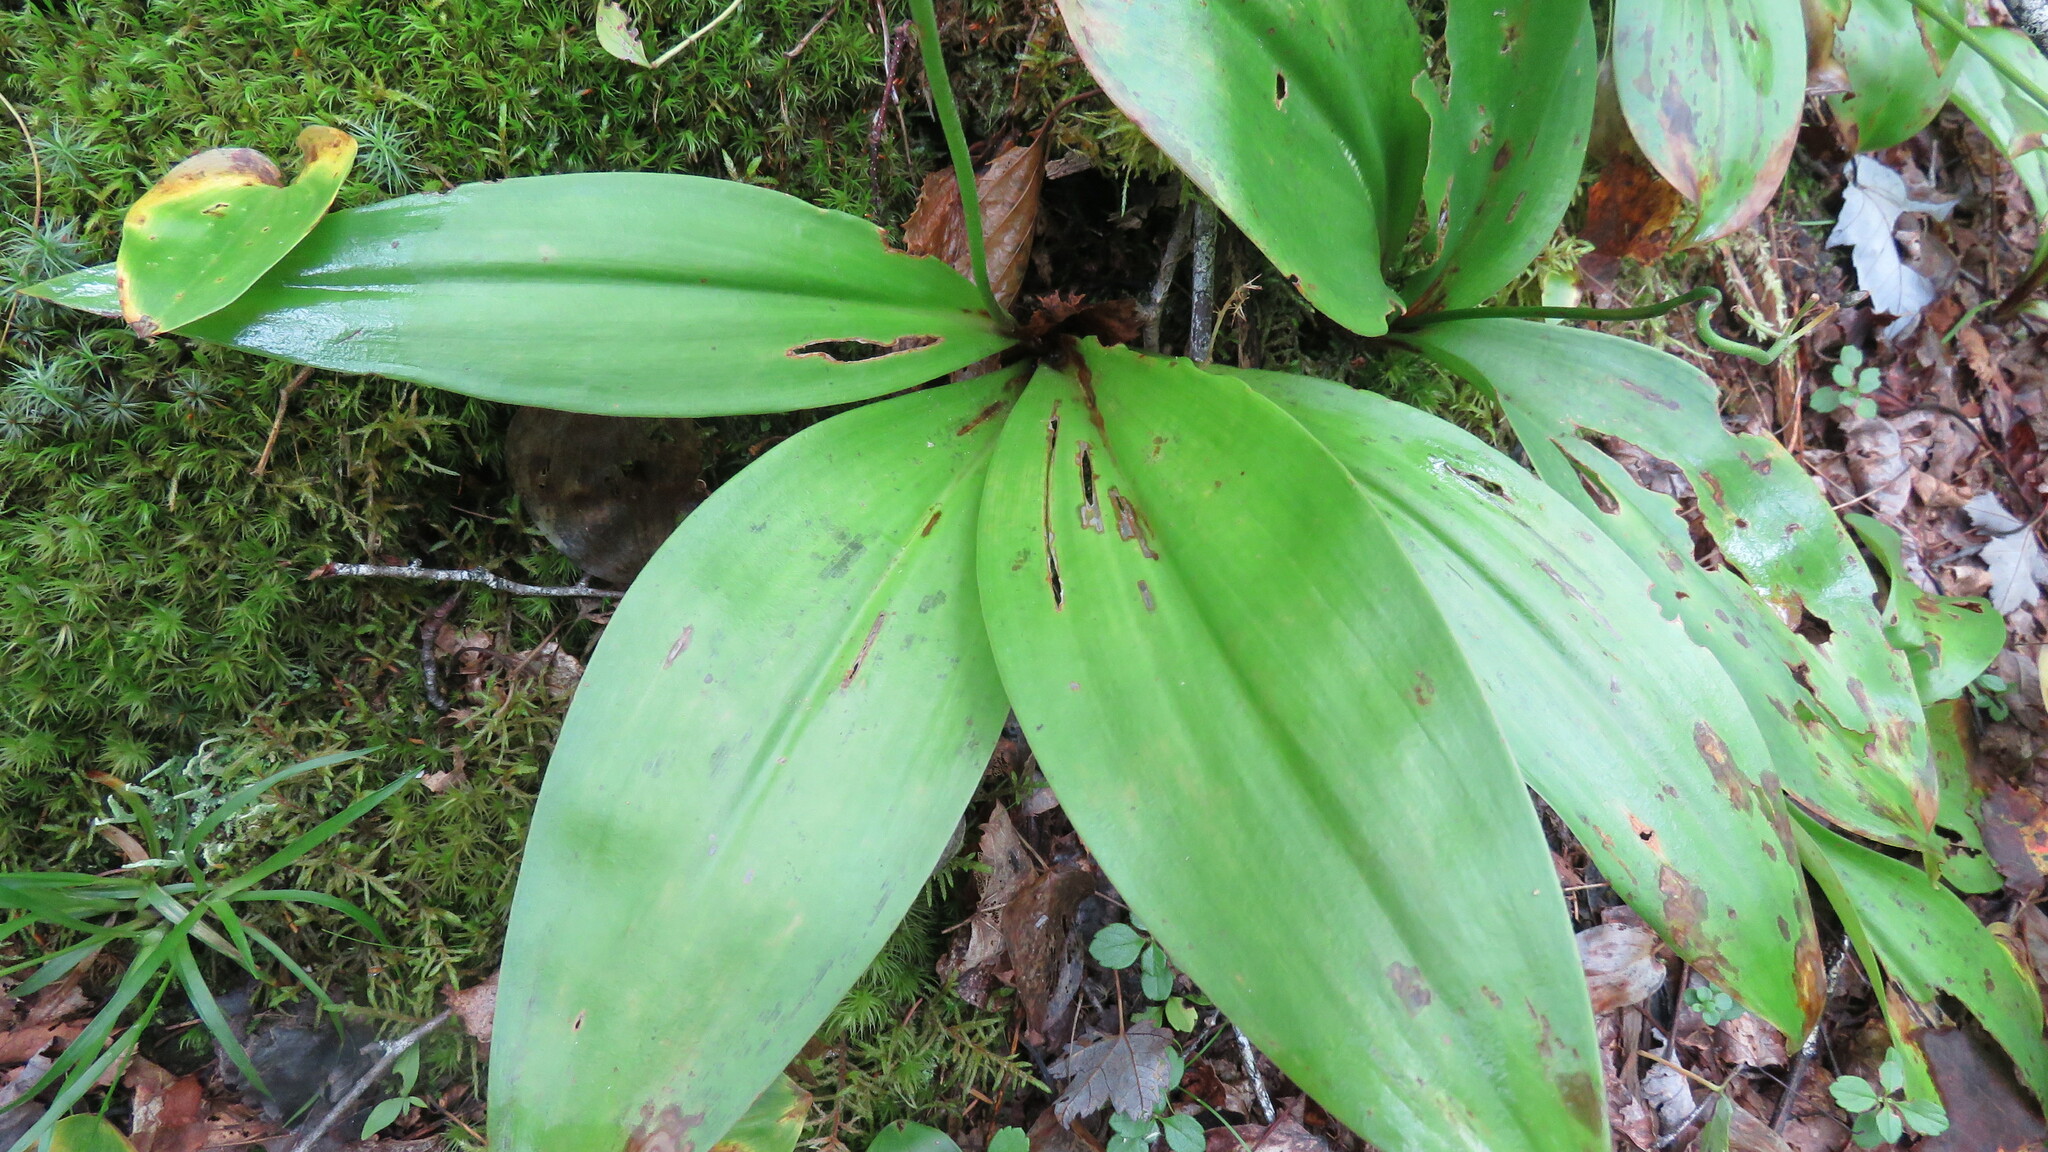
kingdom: Plantae
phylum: Tracheophyta
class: Liliopsida
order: Liliales
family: Liliaceae
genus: Clintonia
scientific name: Clintonia borealis
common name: Yellow clintonia
